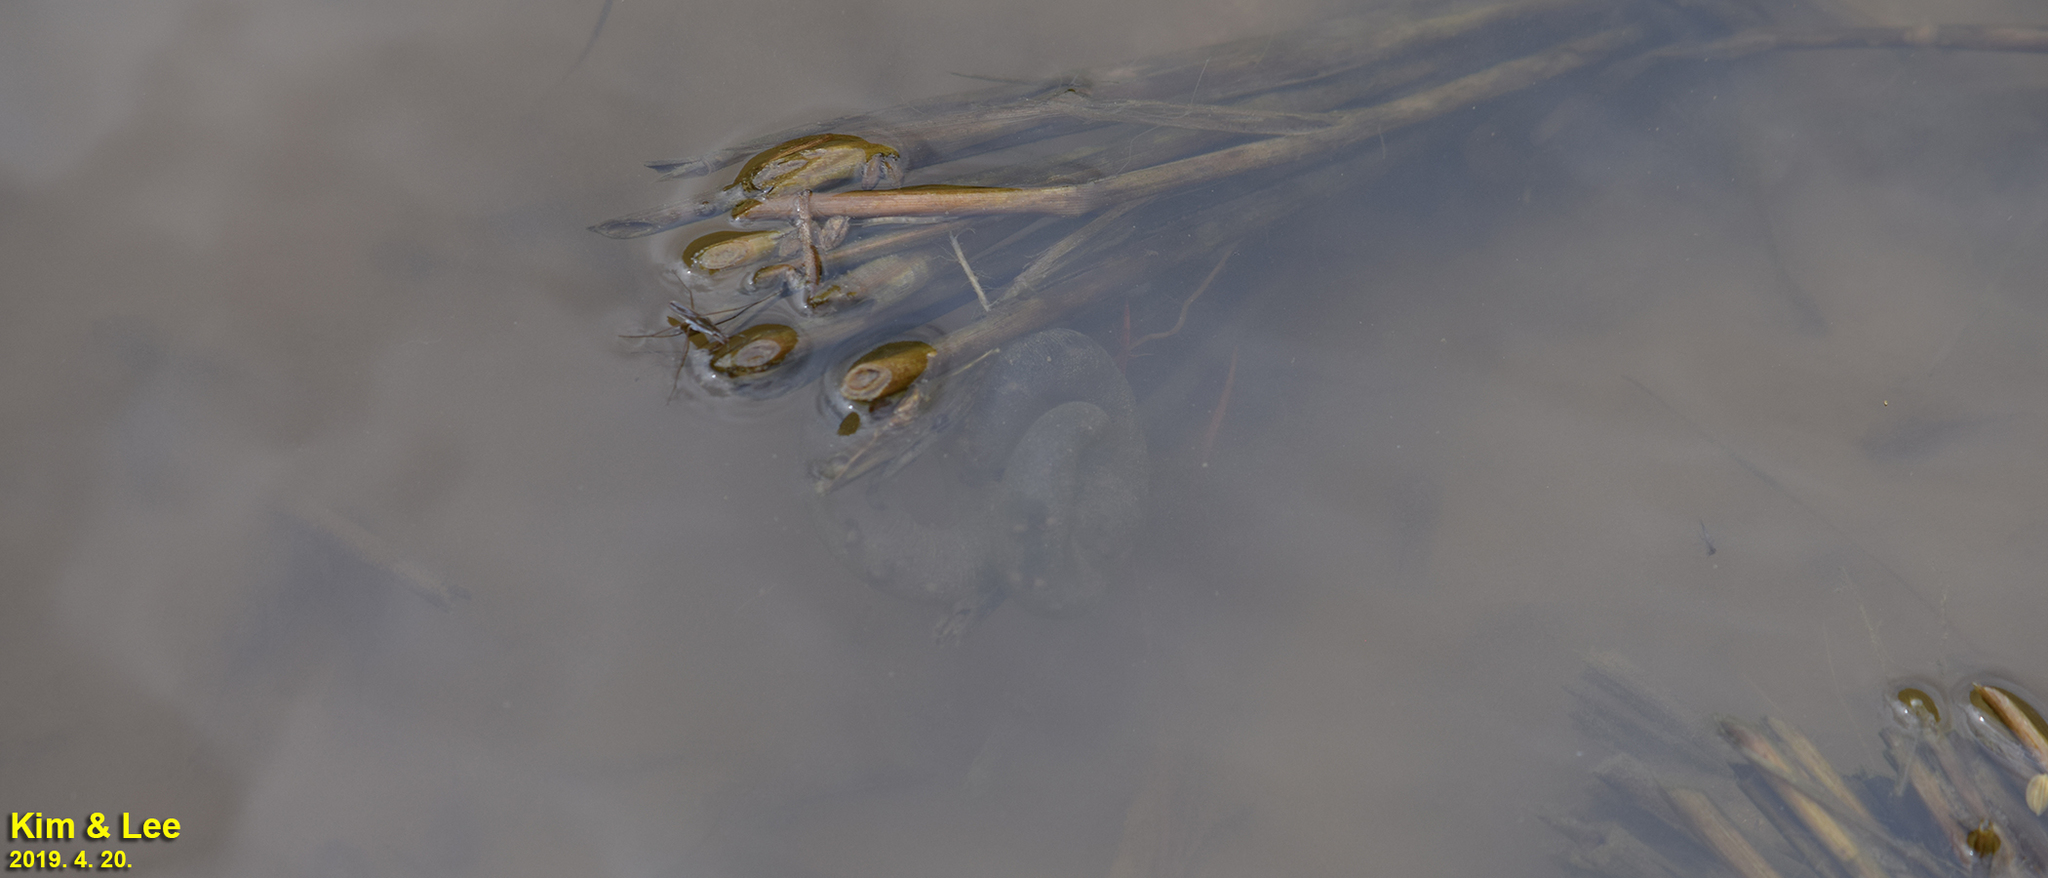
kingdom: Animalia
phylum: Chordata
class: Amphibia
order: Caudata
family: Hynobiidae
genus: Hynobius
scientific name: Hynobius leechii
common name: Gensan salamander
